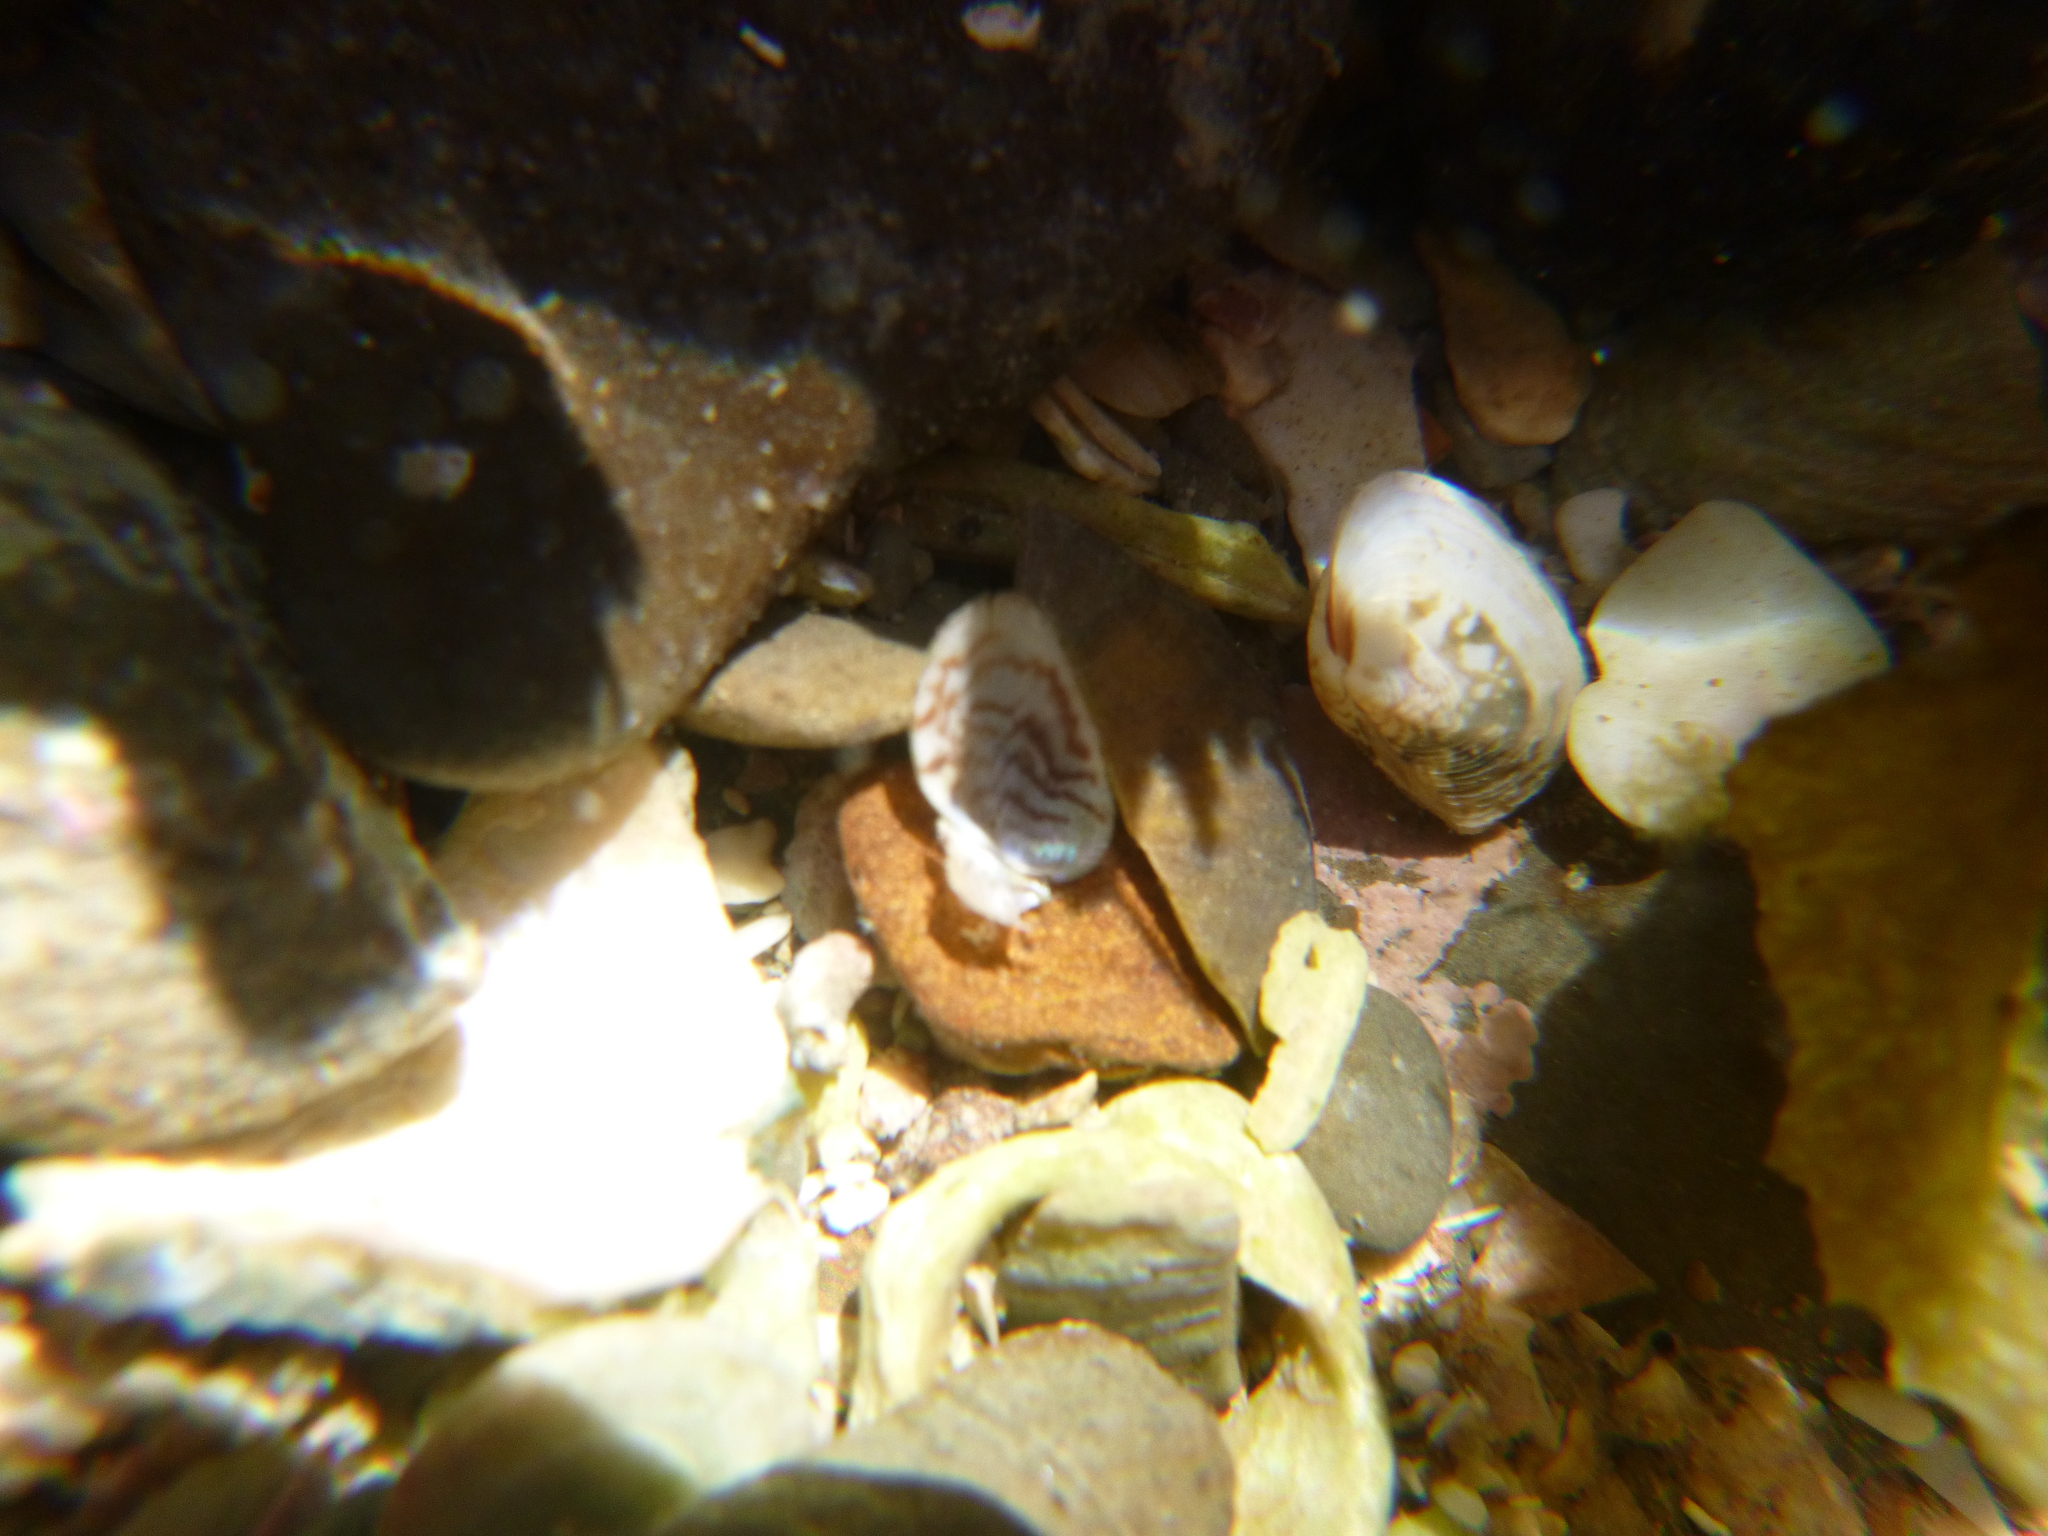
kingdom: Animalia
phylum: Mollusca
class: Bivalvia
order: Mytilida
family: Mytilidae
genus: Arcuatula
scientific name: Arcuatula senhousia
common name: Asian mussel
